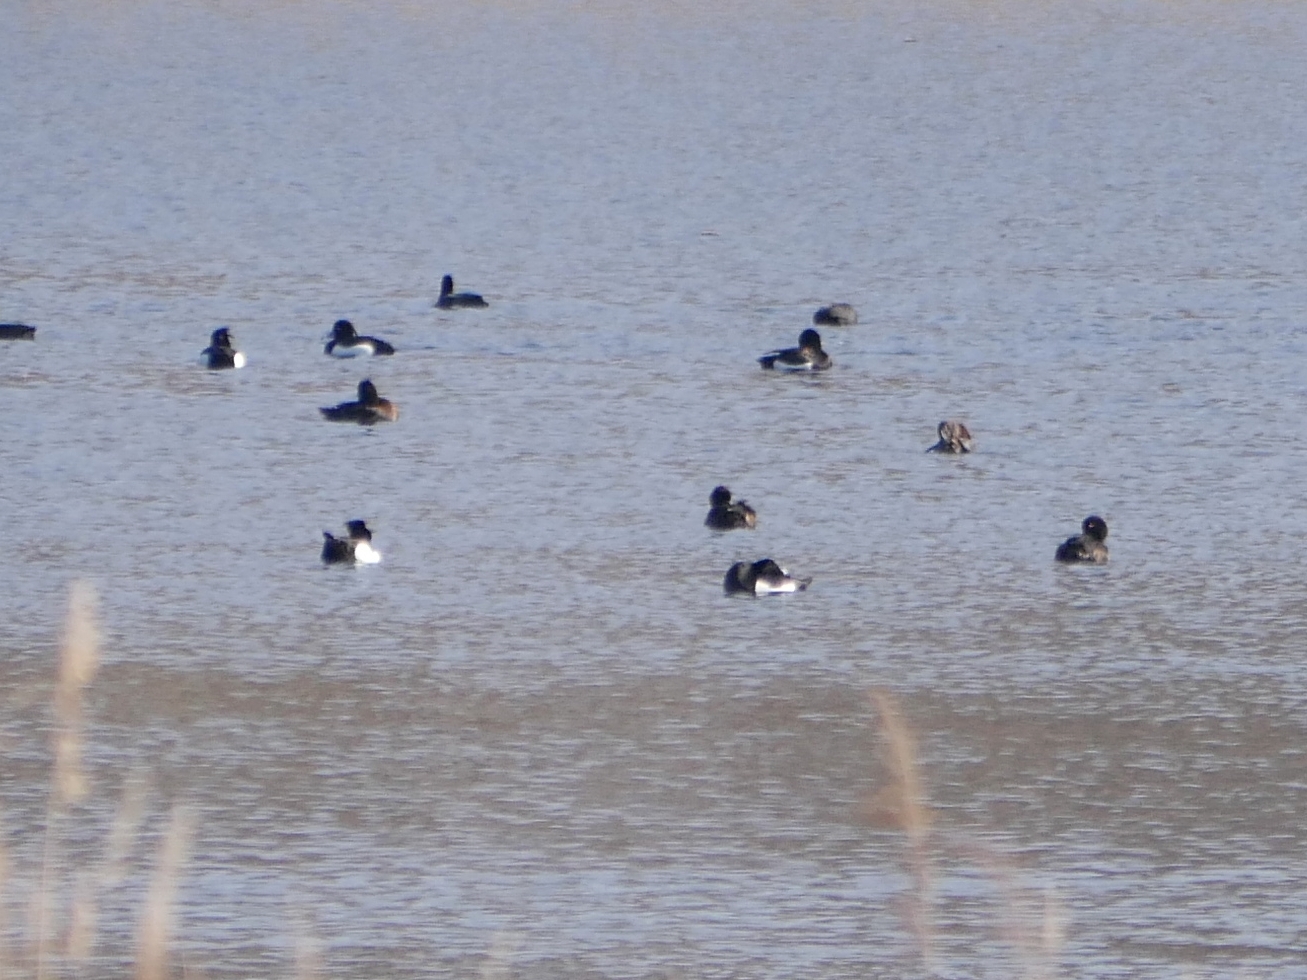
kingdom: Animalia
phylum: Chordata
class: Aves
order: Anseriformes
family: Anatidae
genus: Aythya
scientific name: Aythya fuligula
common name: Tufted duck
